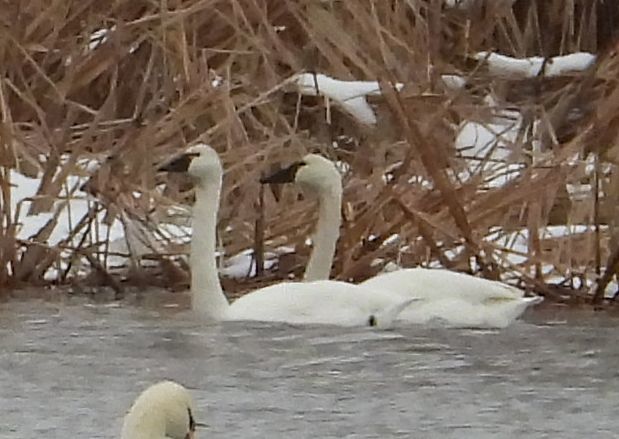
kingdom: Animalia
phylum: Chordata
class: Aves
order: Anseriformes
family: Anatidae
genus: Cygnus
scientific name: Cygnus columbianus
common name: Tundra swan
